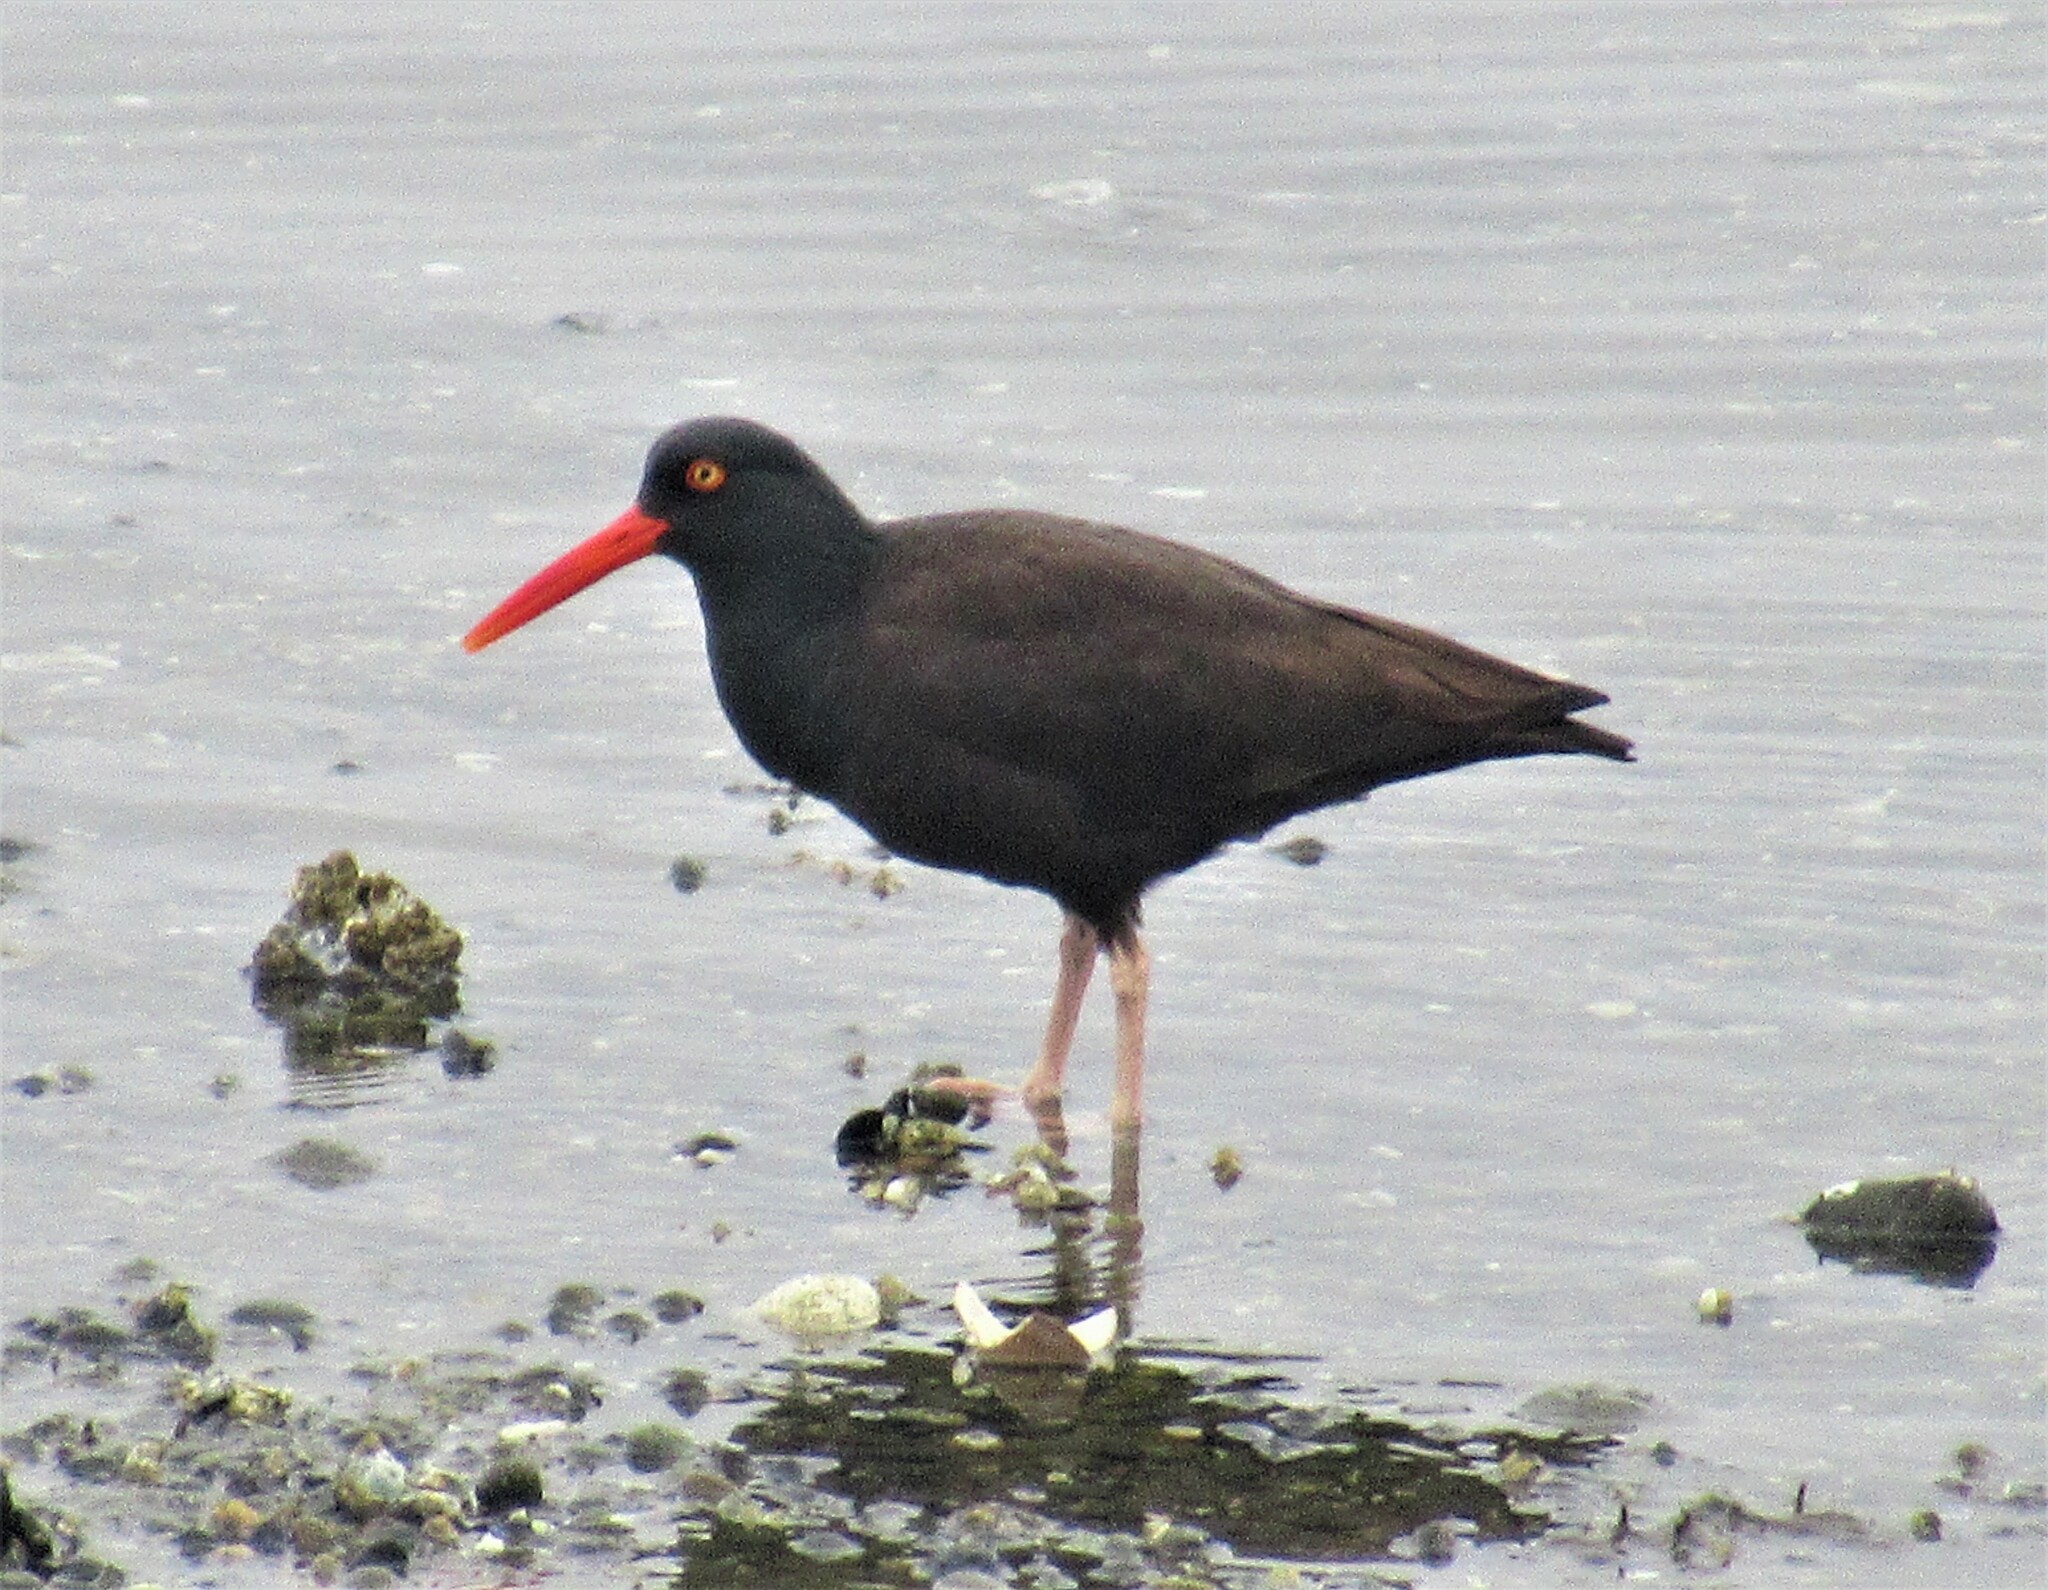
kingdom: Animalia
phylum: Chordata
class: Aves
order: Charadriiformes
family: Haematopodidae
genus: Haematopus
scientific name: Haematopus bachmani
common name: Black oystercatcher
